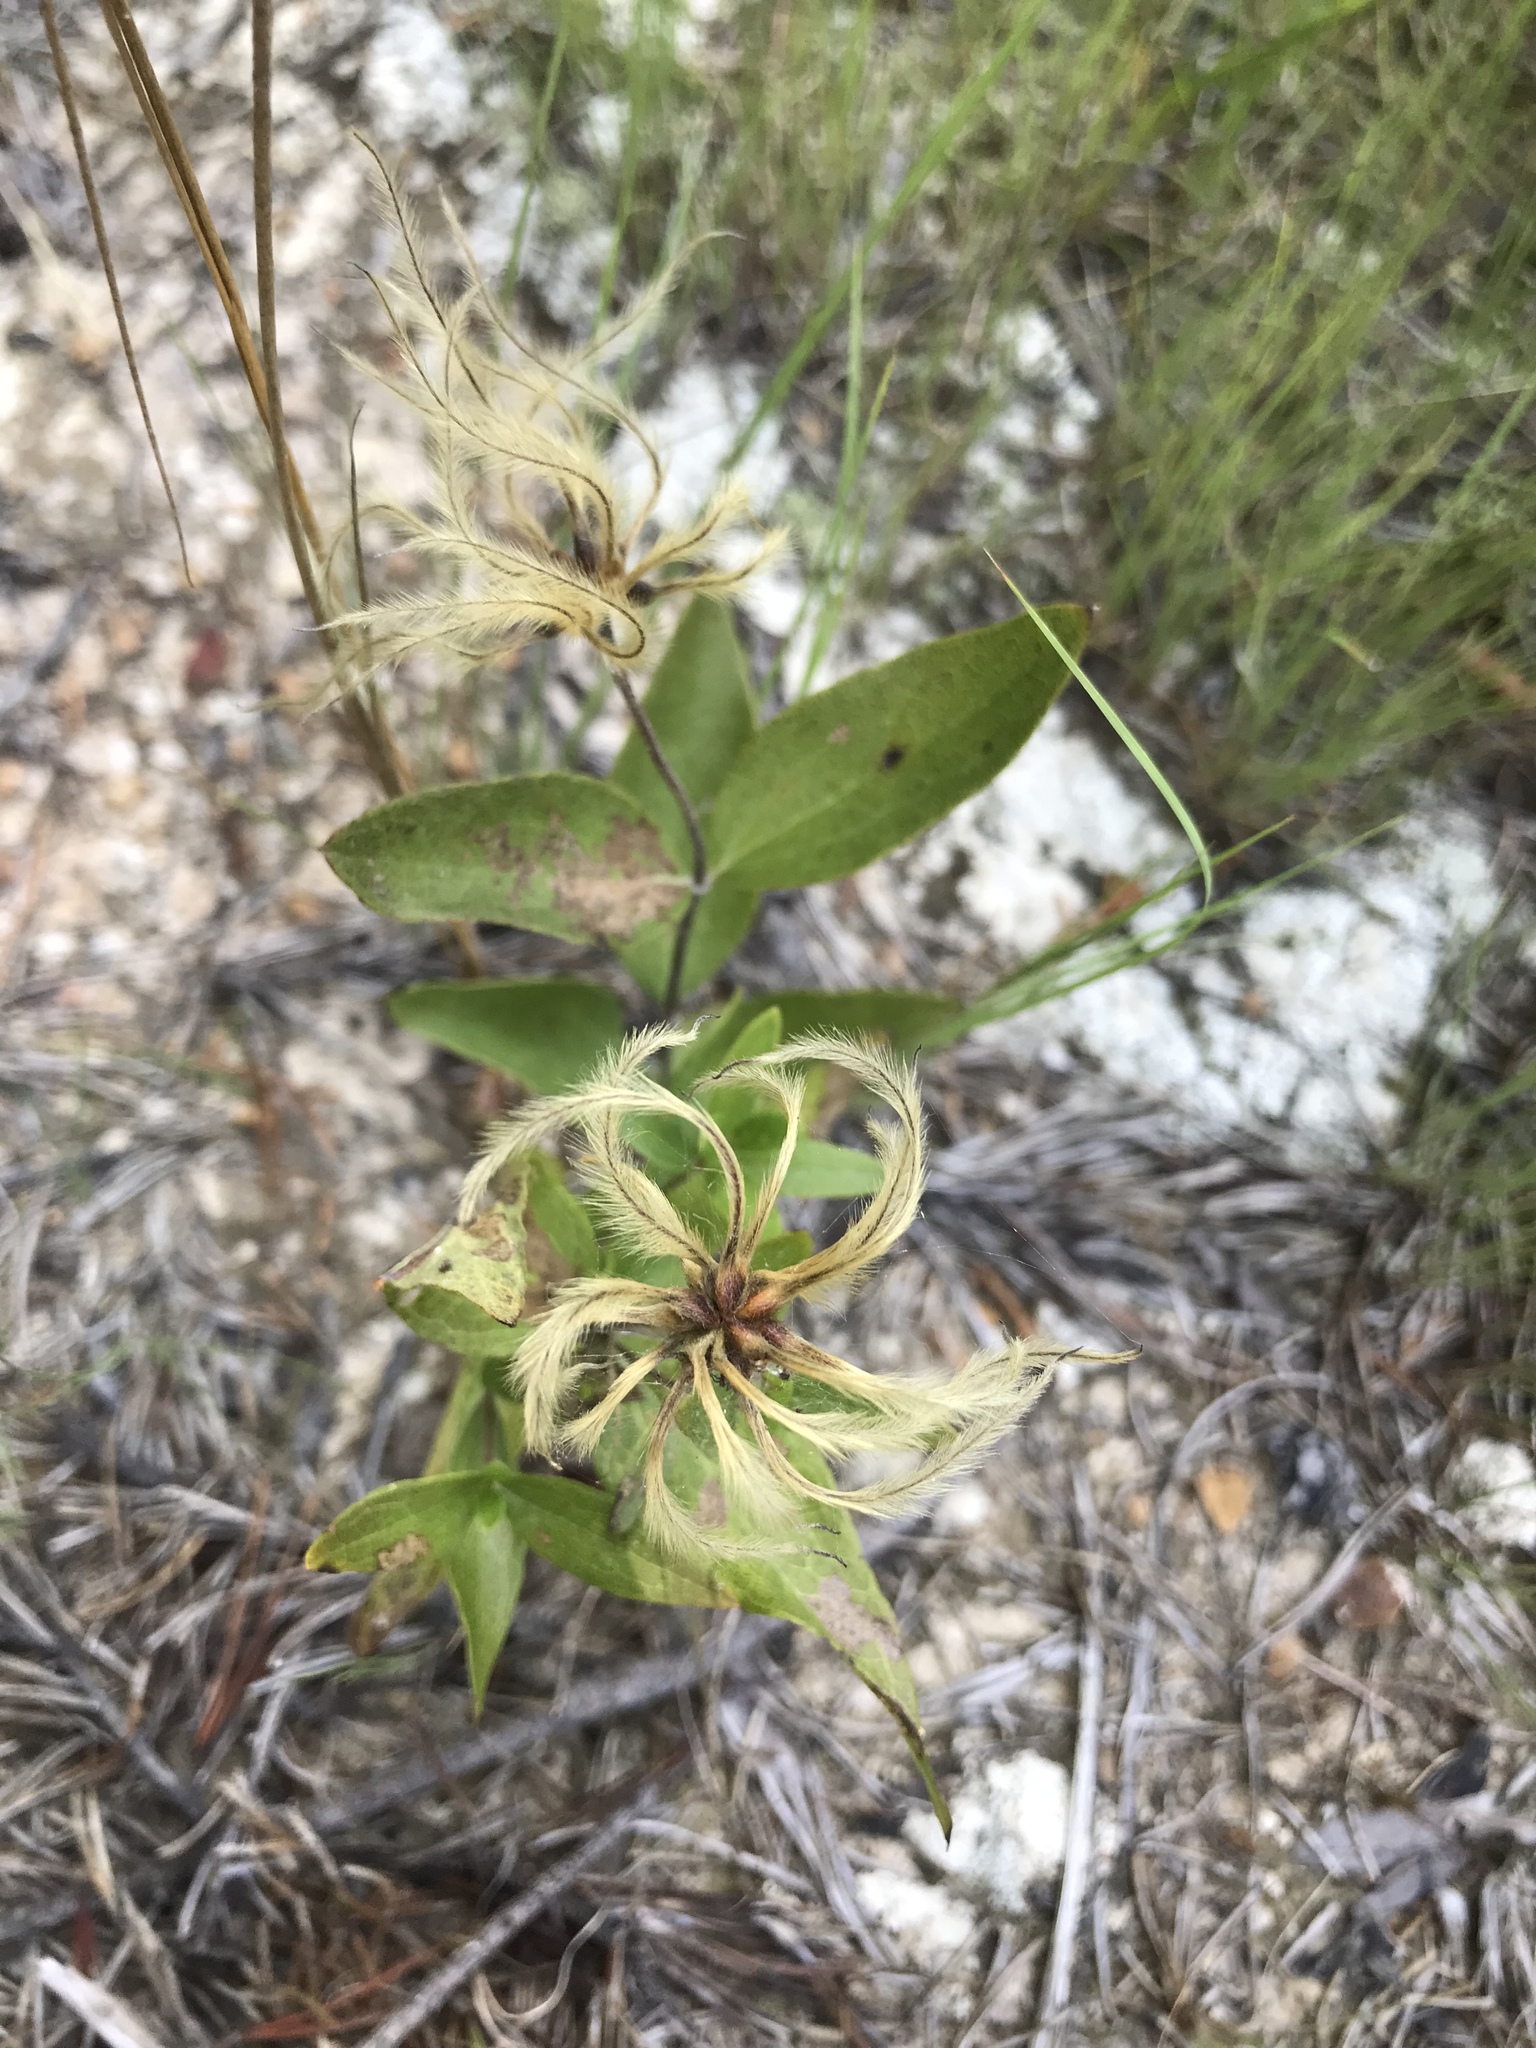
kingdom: Plantae
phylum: Tracheophyta
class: Magnoliopsida
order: Ranunculales
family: Ranunculaceae
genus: Clematis
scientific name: Clematis ochroleuca
